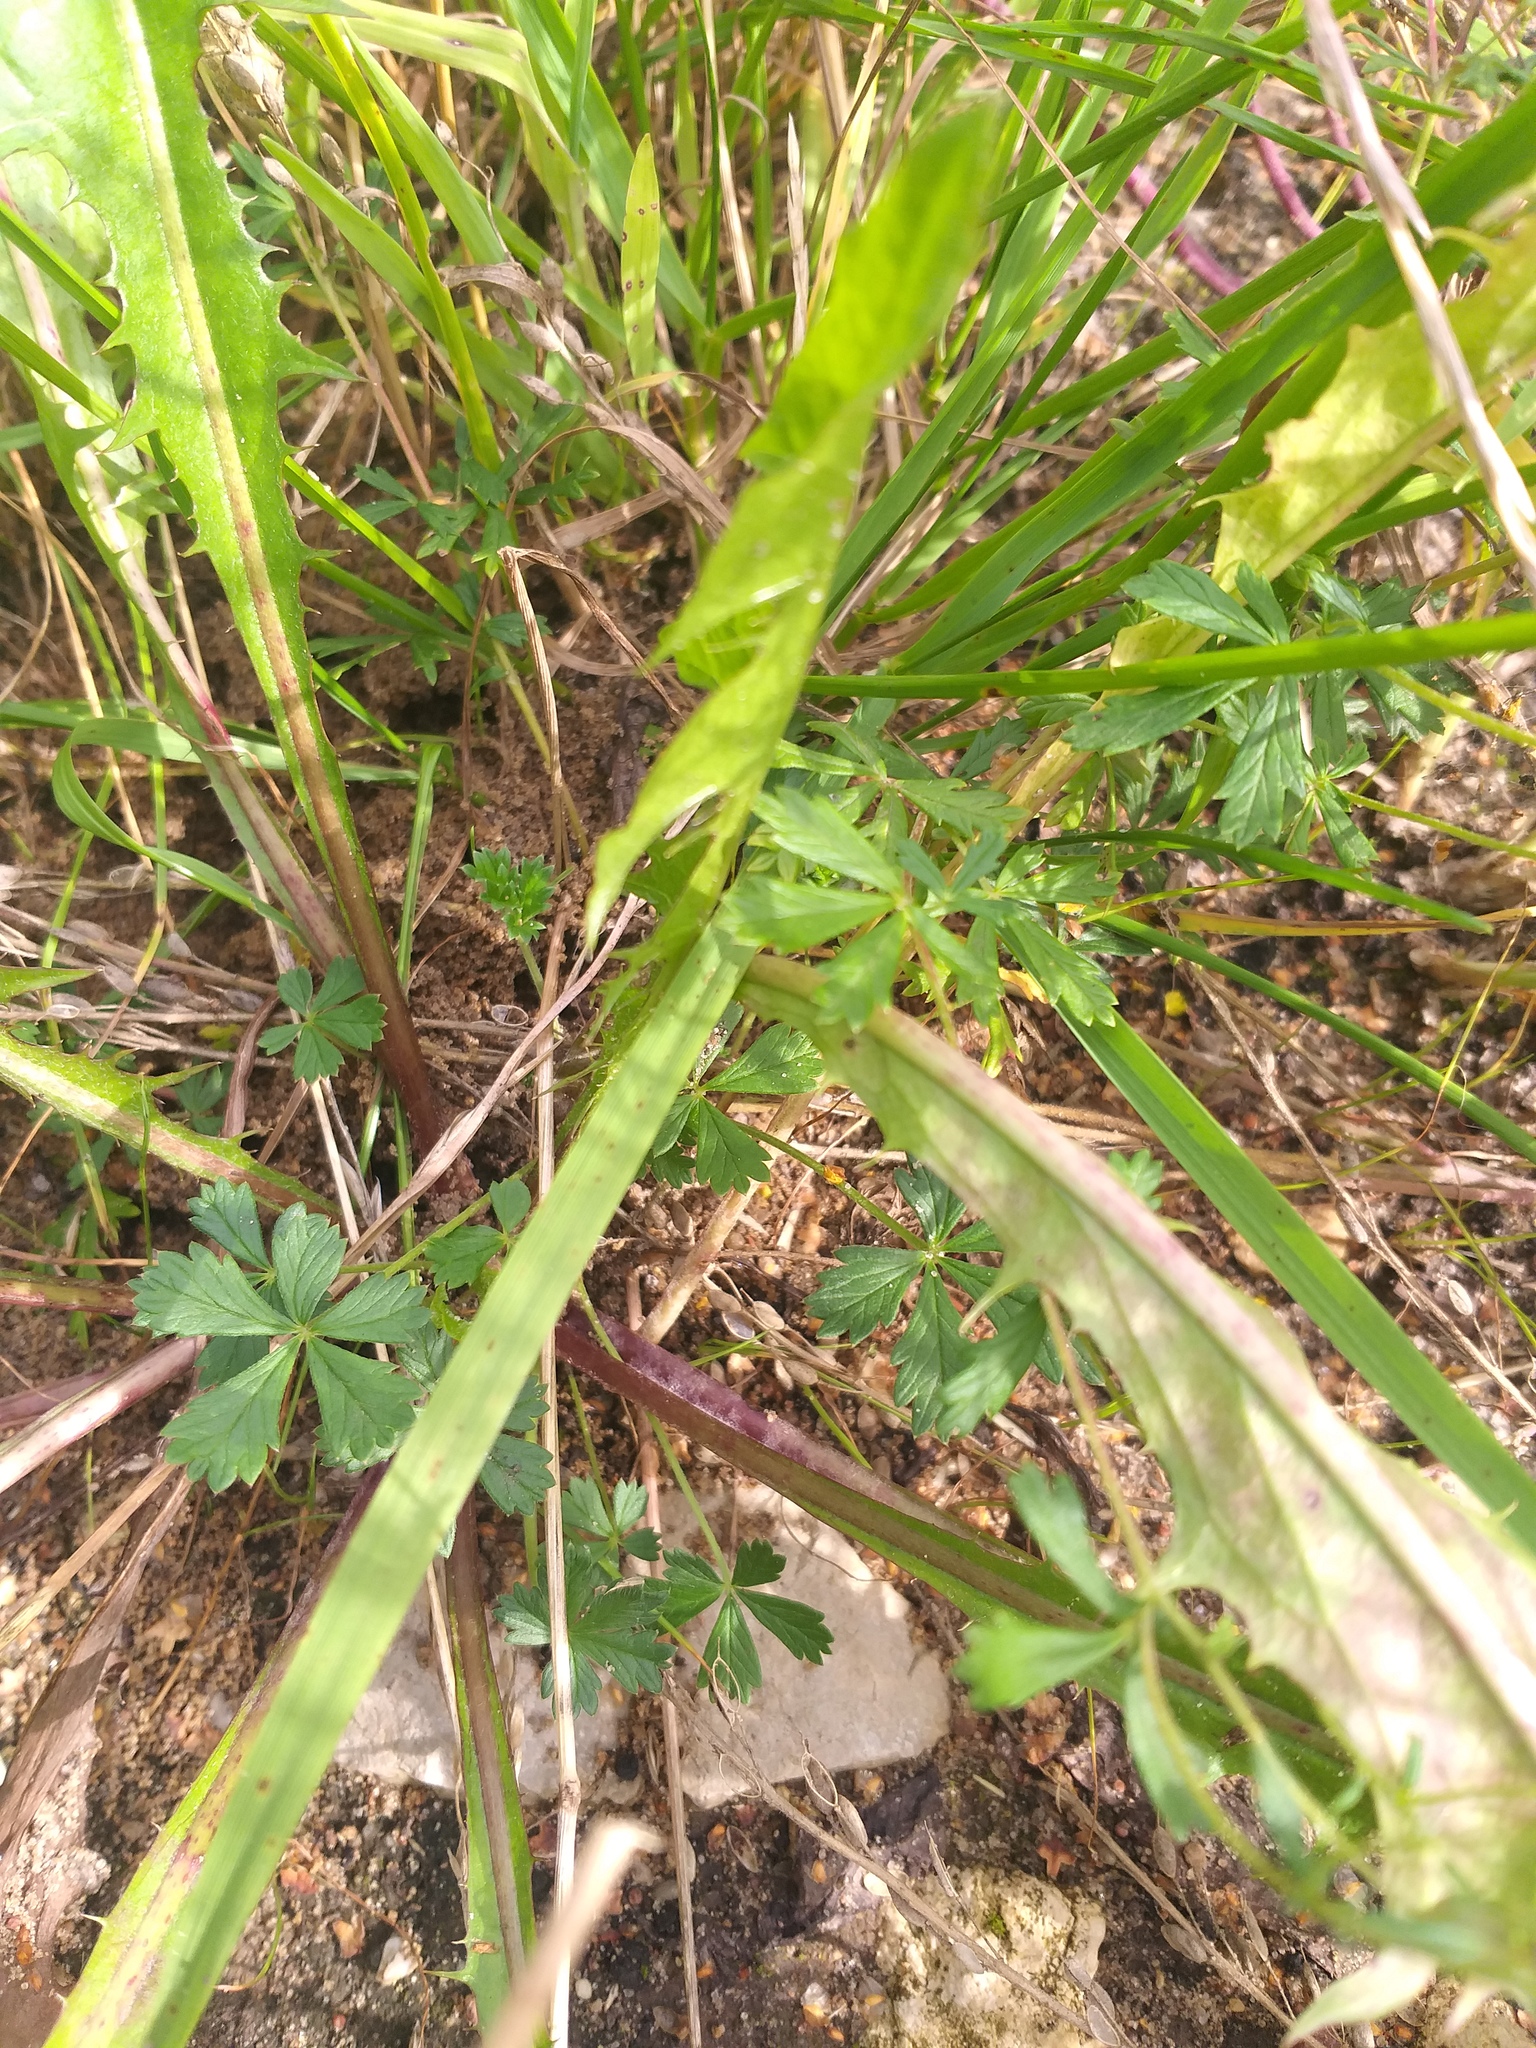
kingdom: Plantae
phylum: Tracheophyta
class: Magnoliopsida
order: Rosales
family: Rosaceae
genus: Potentilla
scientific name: Potentilla argentea
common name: Hoary cinquefoil
